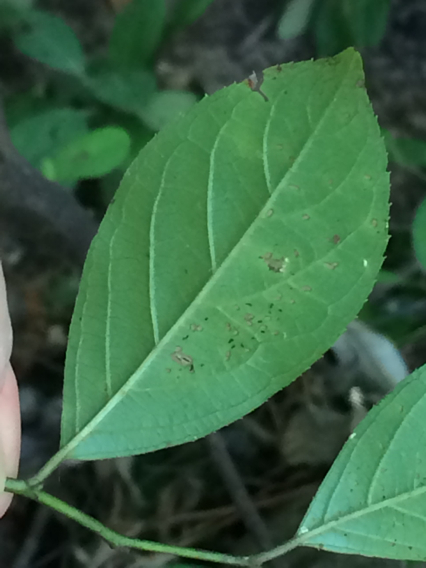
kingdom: Plantae
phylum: Tracheophyta
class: Magnoliopsida
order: Saxifragales
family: Iteaceae
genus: Itea
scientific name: Itea virginica
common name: Sweetspire
